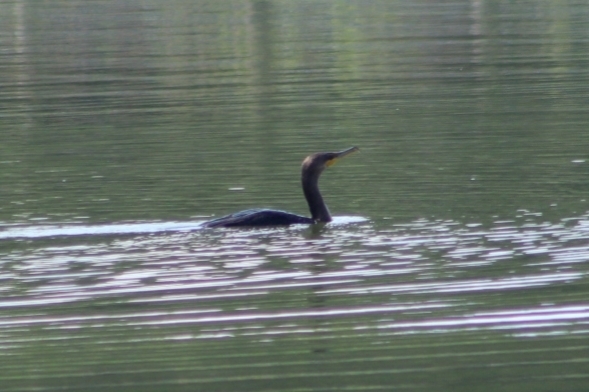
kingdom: Animalia
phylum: Chordata
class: Aves
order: Suliformes
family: Phalacrocoracidae
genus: Phalacrocorax
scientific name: Phalacrocorax auritus
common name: Double-crested cormorant
